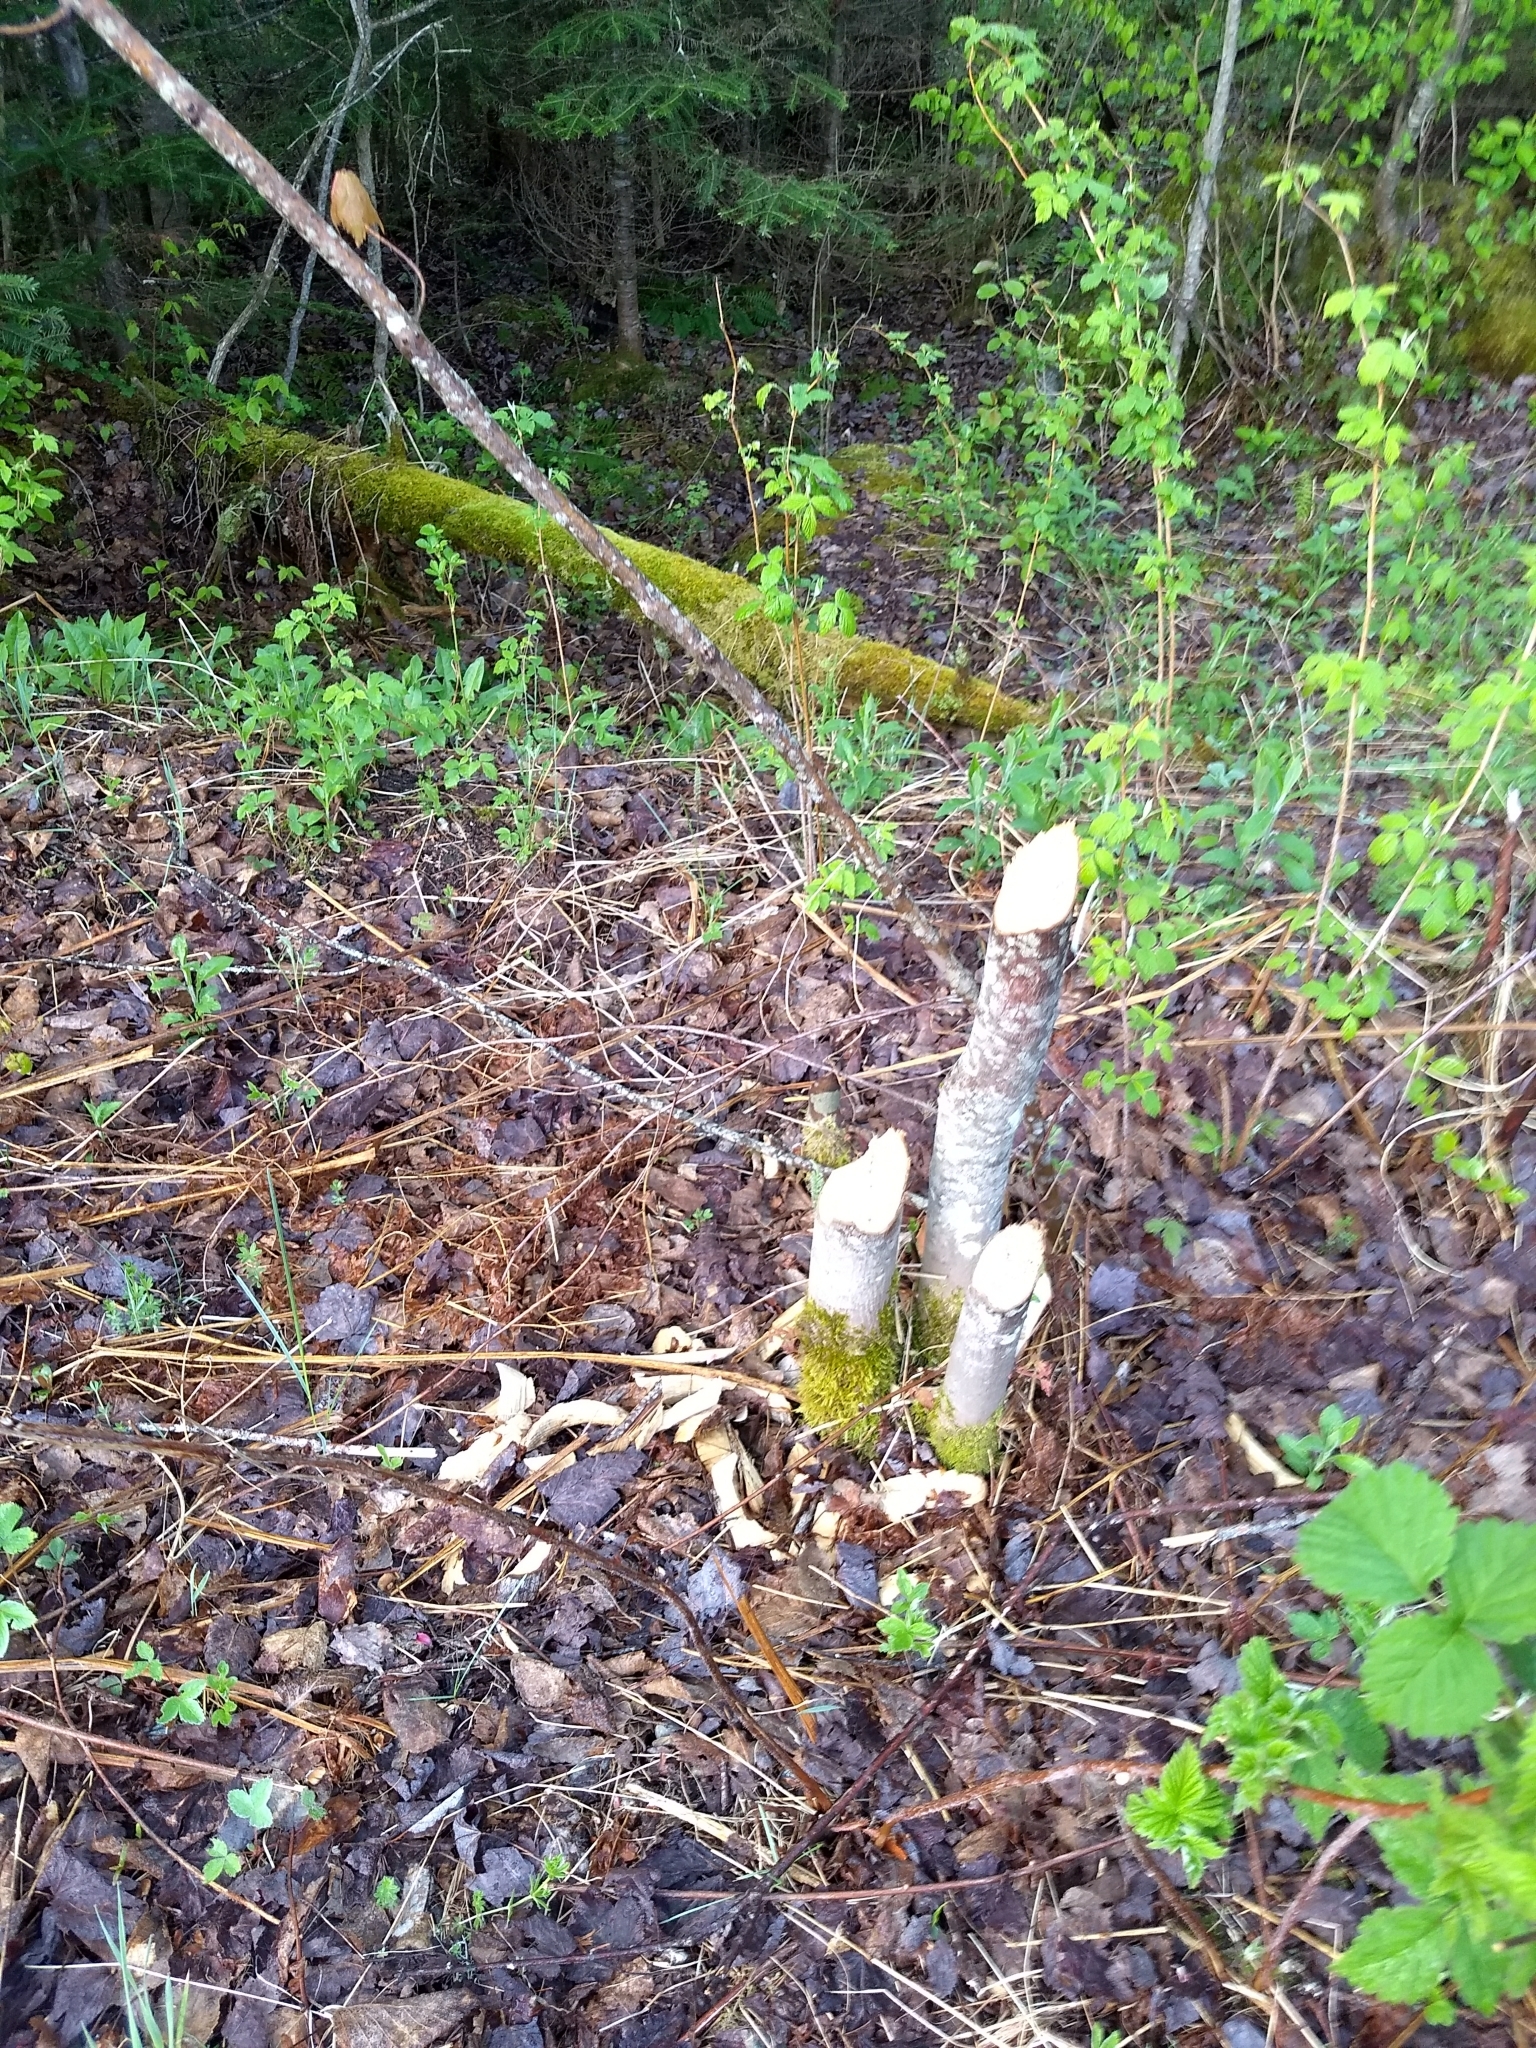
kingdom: Animalia
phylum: Chordata
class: Mammalia
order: Rodentia
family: Castoridae
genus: Castor
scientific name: Castor canadensis
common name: American beaver
